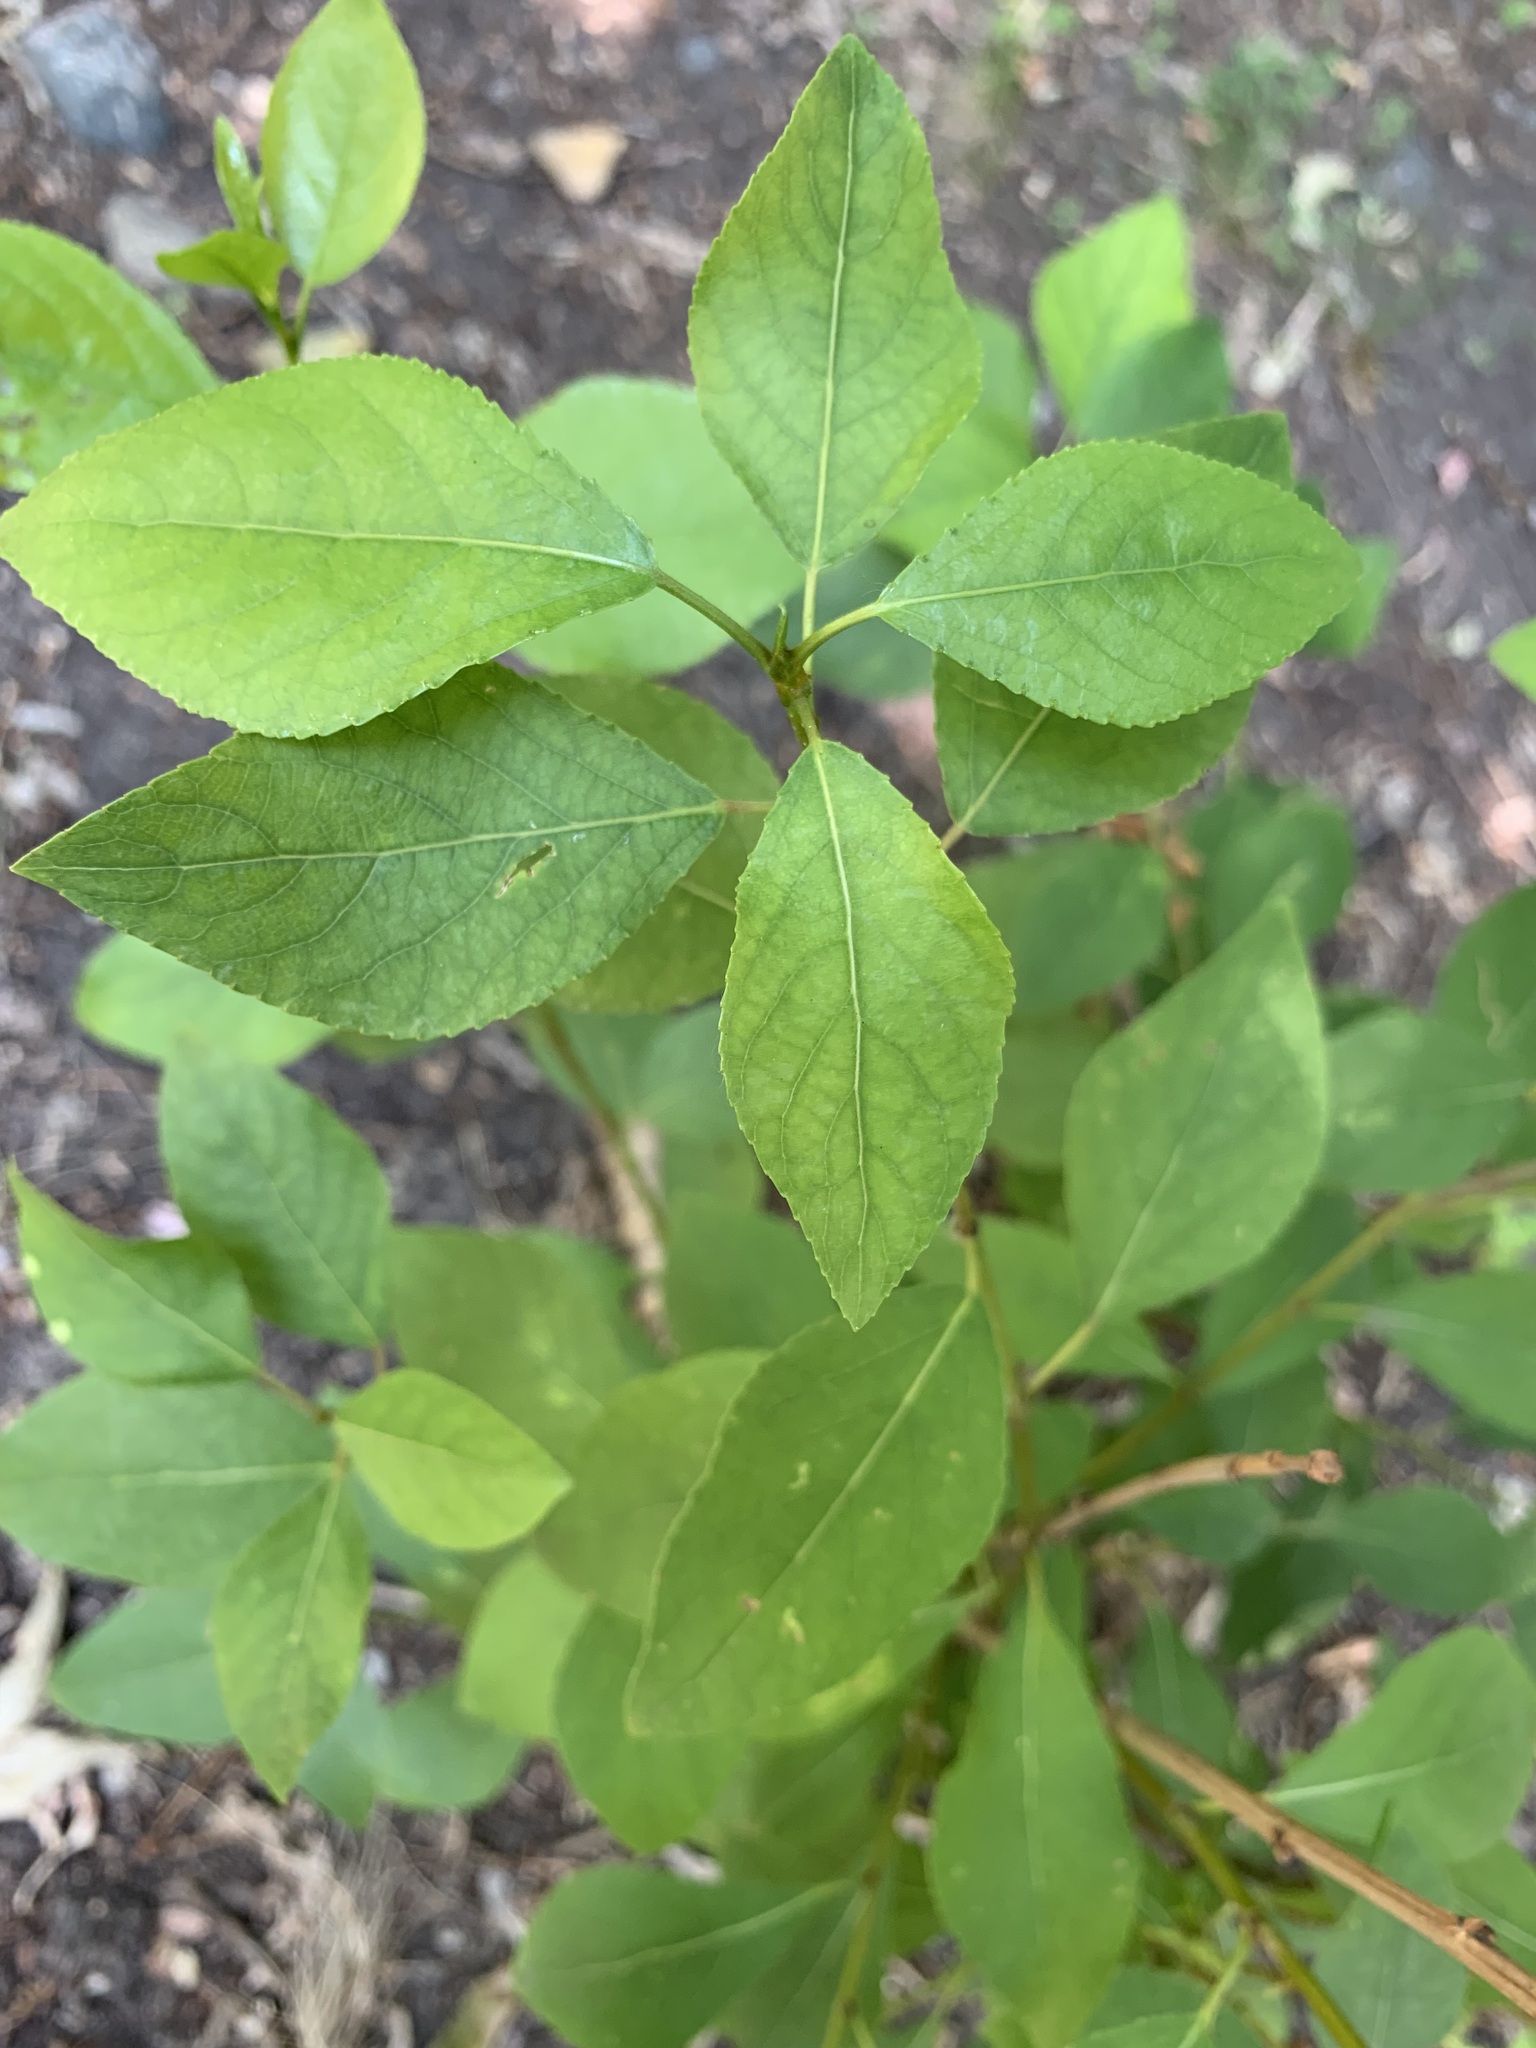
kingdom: Plantae
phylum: Tracheophyta
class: Magnoliopsida
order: Malpighiales
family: Salicaceae
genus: Populus
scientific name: Populus sibirica
